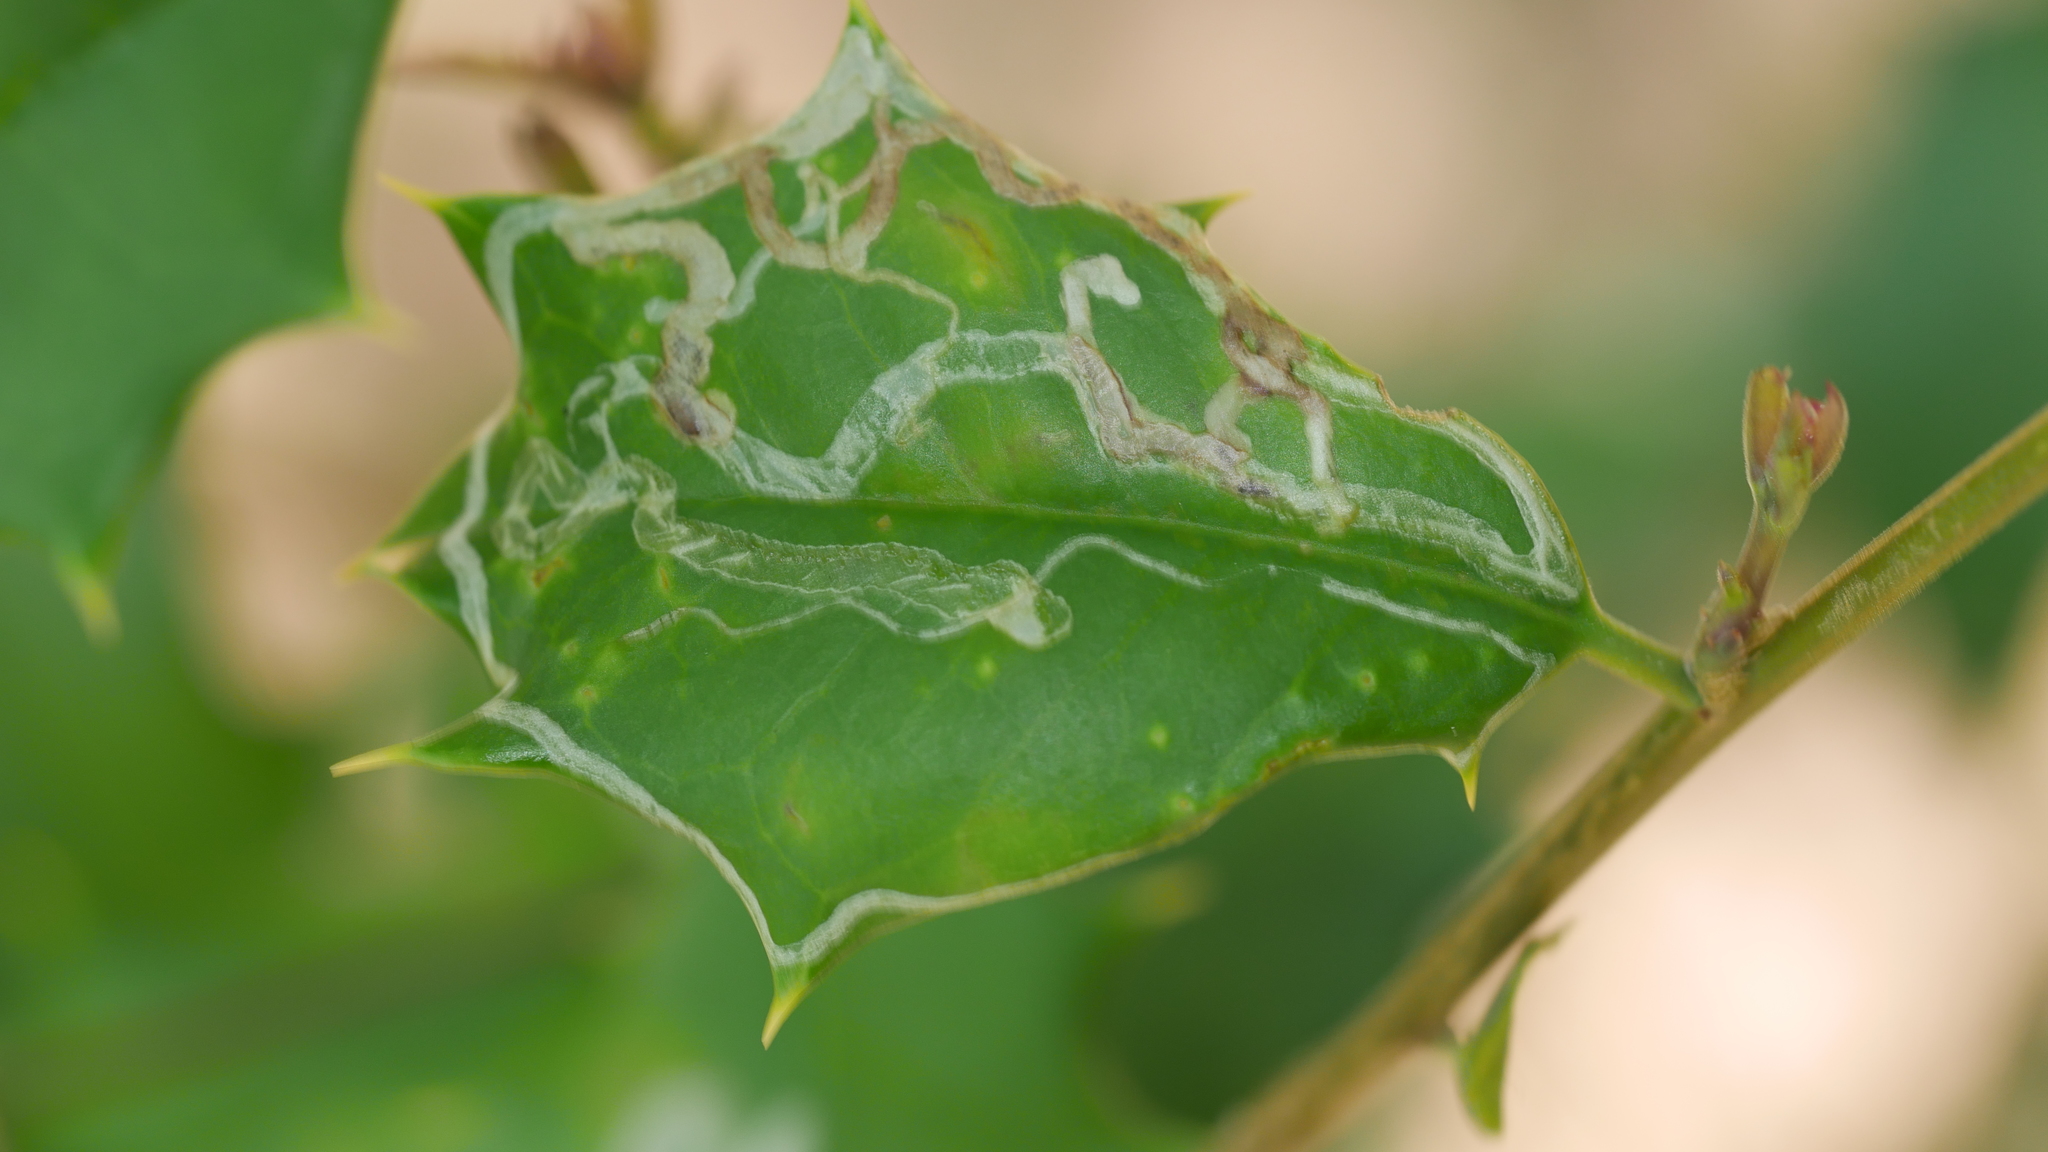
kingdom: Animalia
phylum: Arthropoda
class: Insecta
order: Diptera
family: Agromyzidae
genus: Phytomyza
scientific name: Phytomyza opacae
